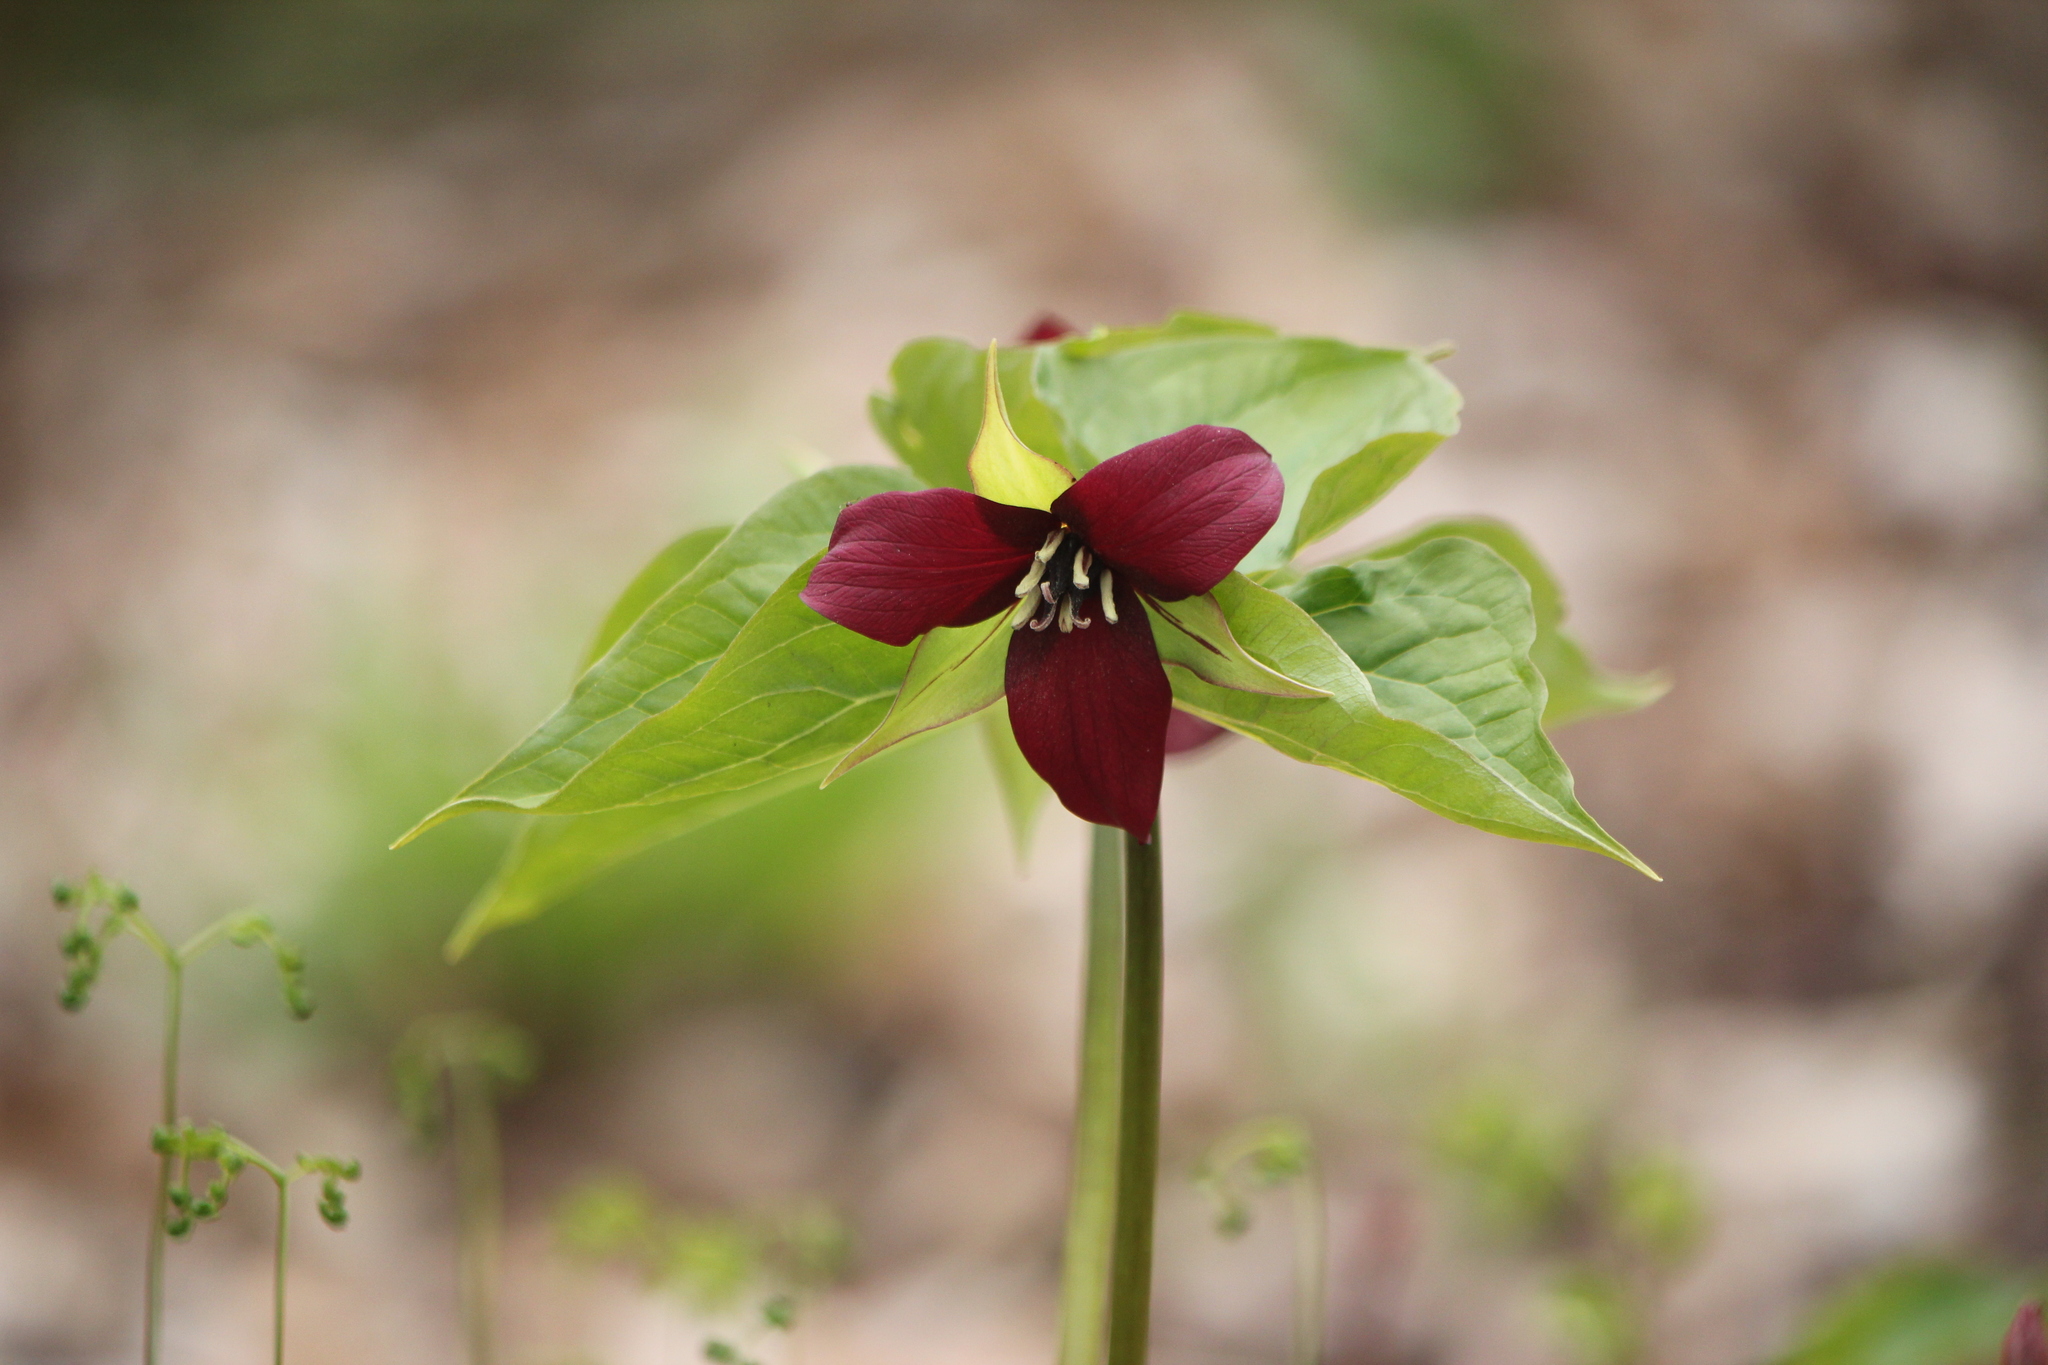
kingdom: Plantae
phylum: Tracheophyta
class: Liliopsida
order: Liliales
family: Melanthiaceae
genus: Trillium
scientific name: Trillium erectum
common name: Purple trillium
